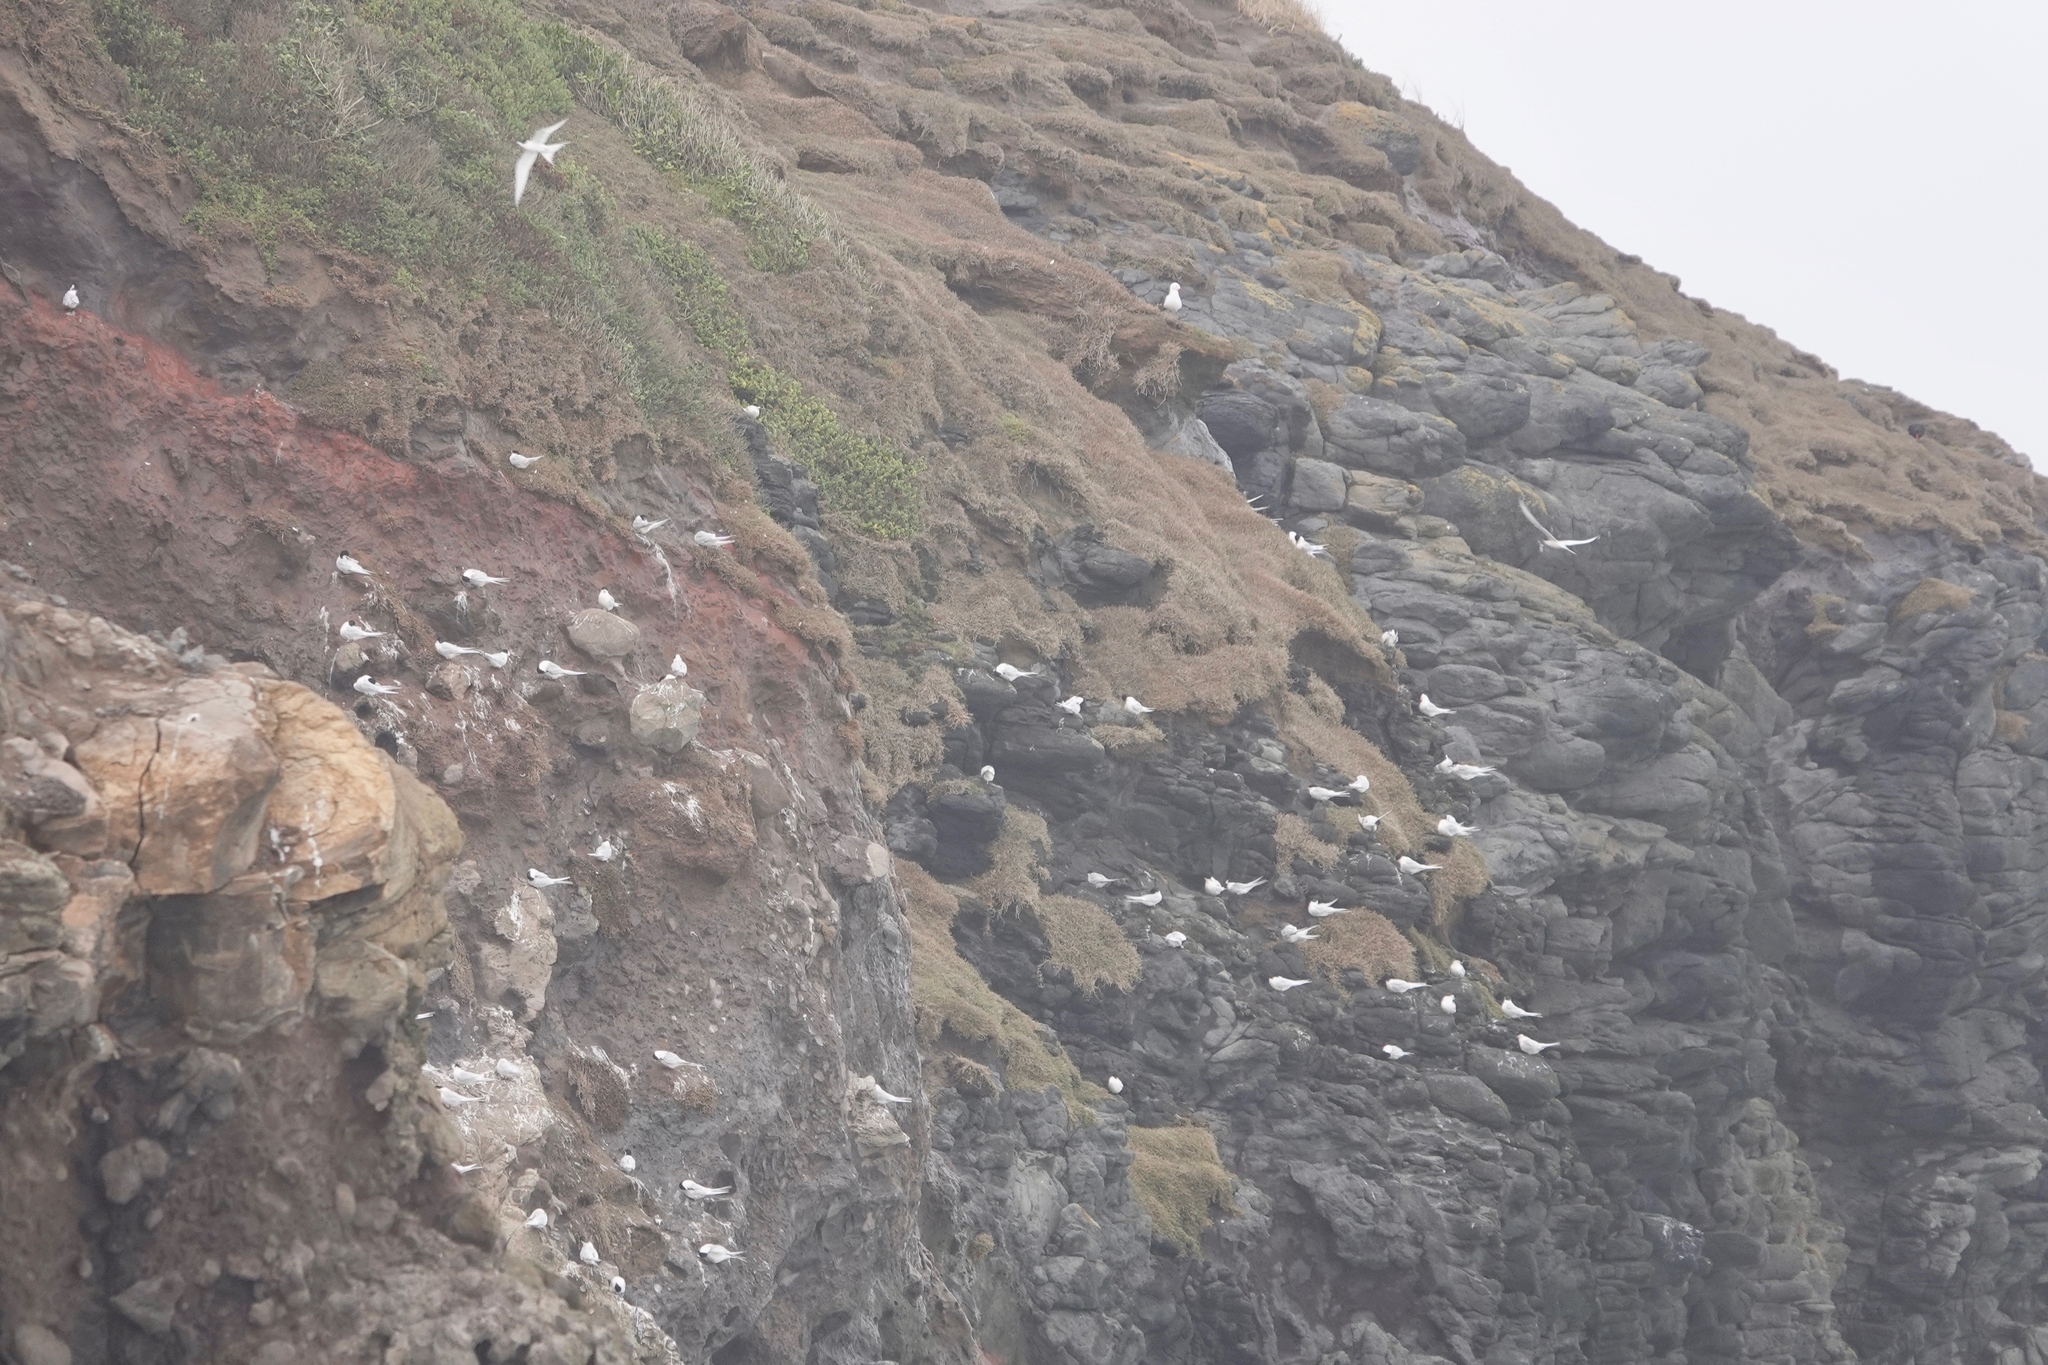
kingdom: Animalia
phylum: Chordata
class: Aves
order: Charadriiformes
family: Laridae
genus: Sterna
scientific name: Sterna striata
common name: White-fronted tern
